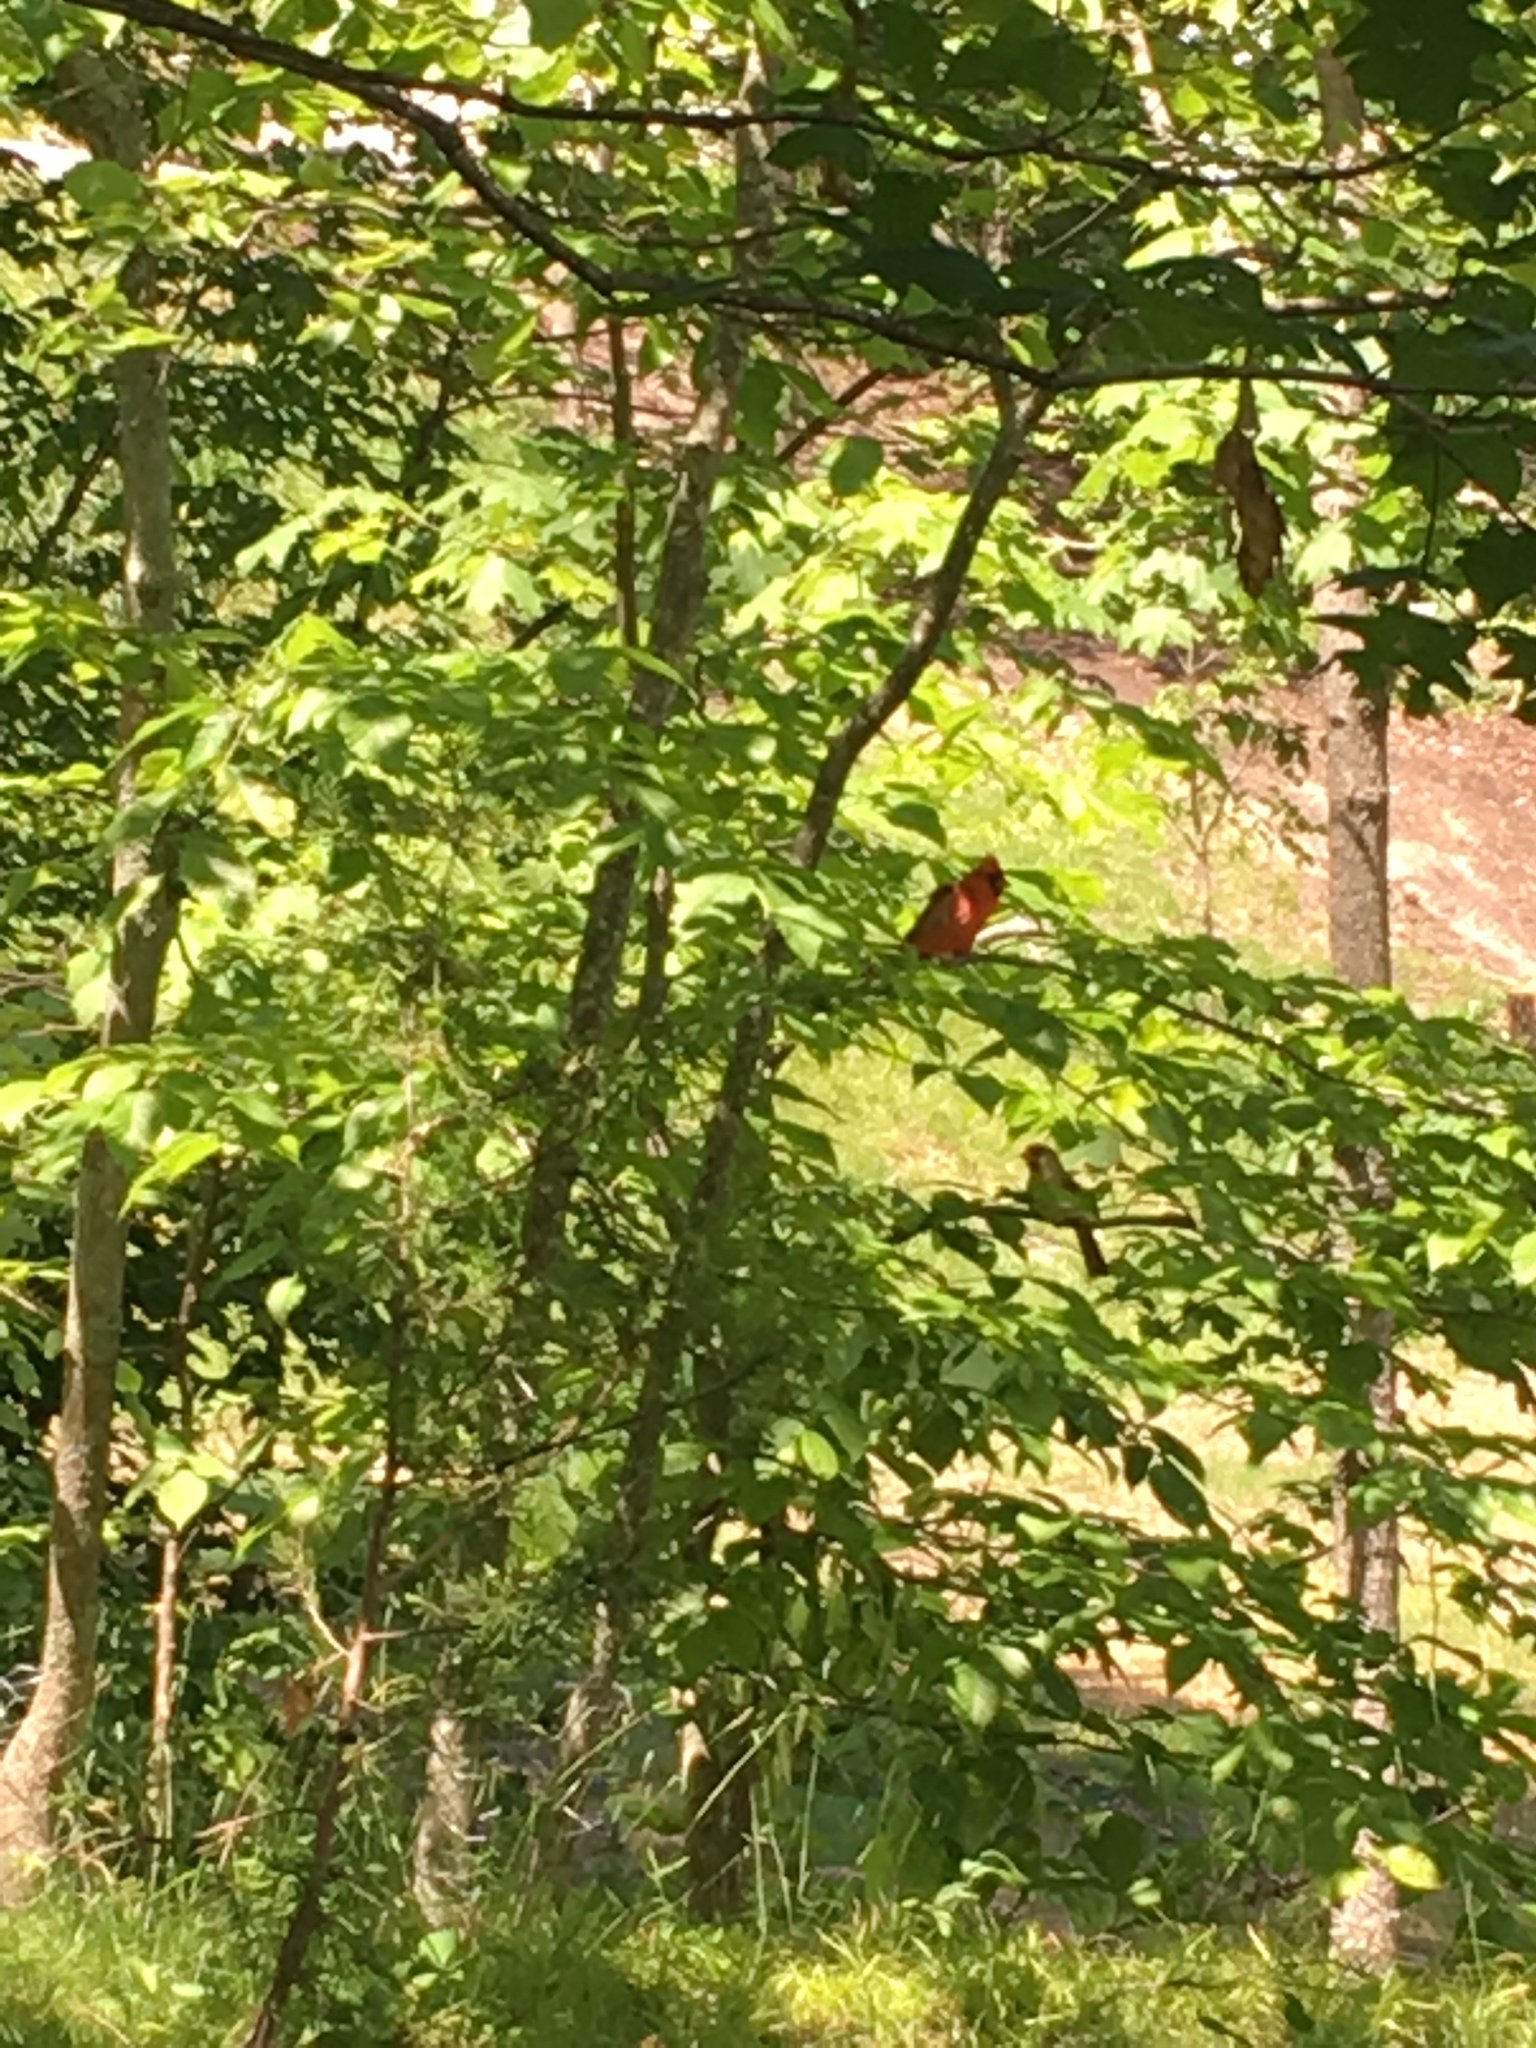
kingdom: Animalia
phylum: Chordata
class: Aves
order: Passeriformes
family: Cardinalidae
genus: Cardinalis
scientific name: Cardinalis cardinalis
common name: Northern cardinal
